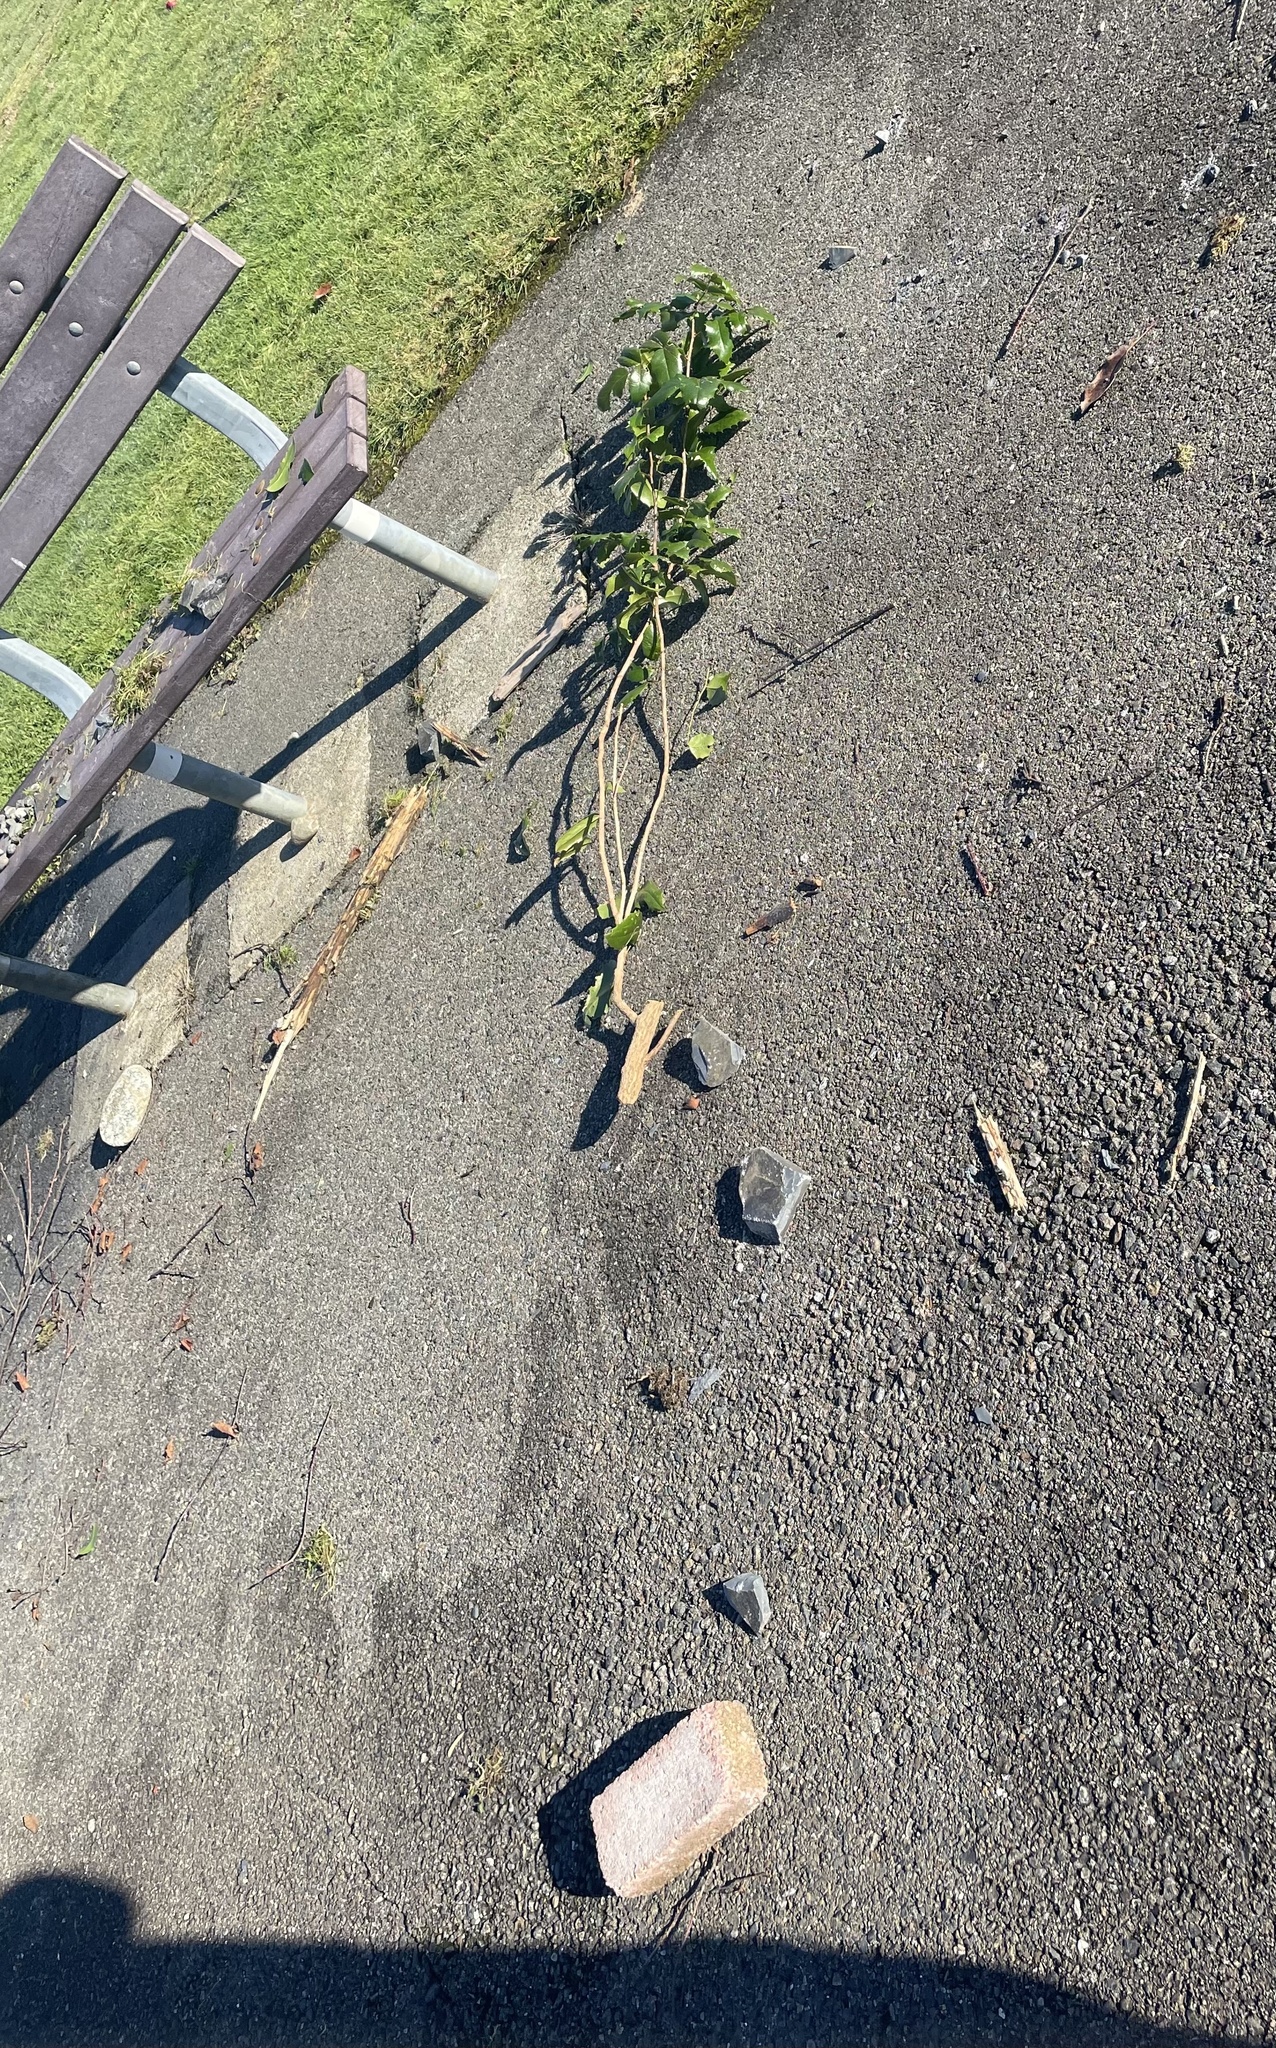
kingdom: Plantae
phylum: Tracheophyta
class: Magnoliopsida
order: Ranunculales
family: Berberidaceae
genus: Mahonia
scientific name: Mahonia aquifolium
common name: Oregon-grape
